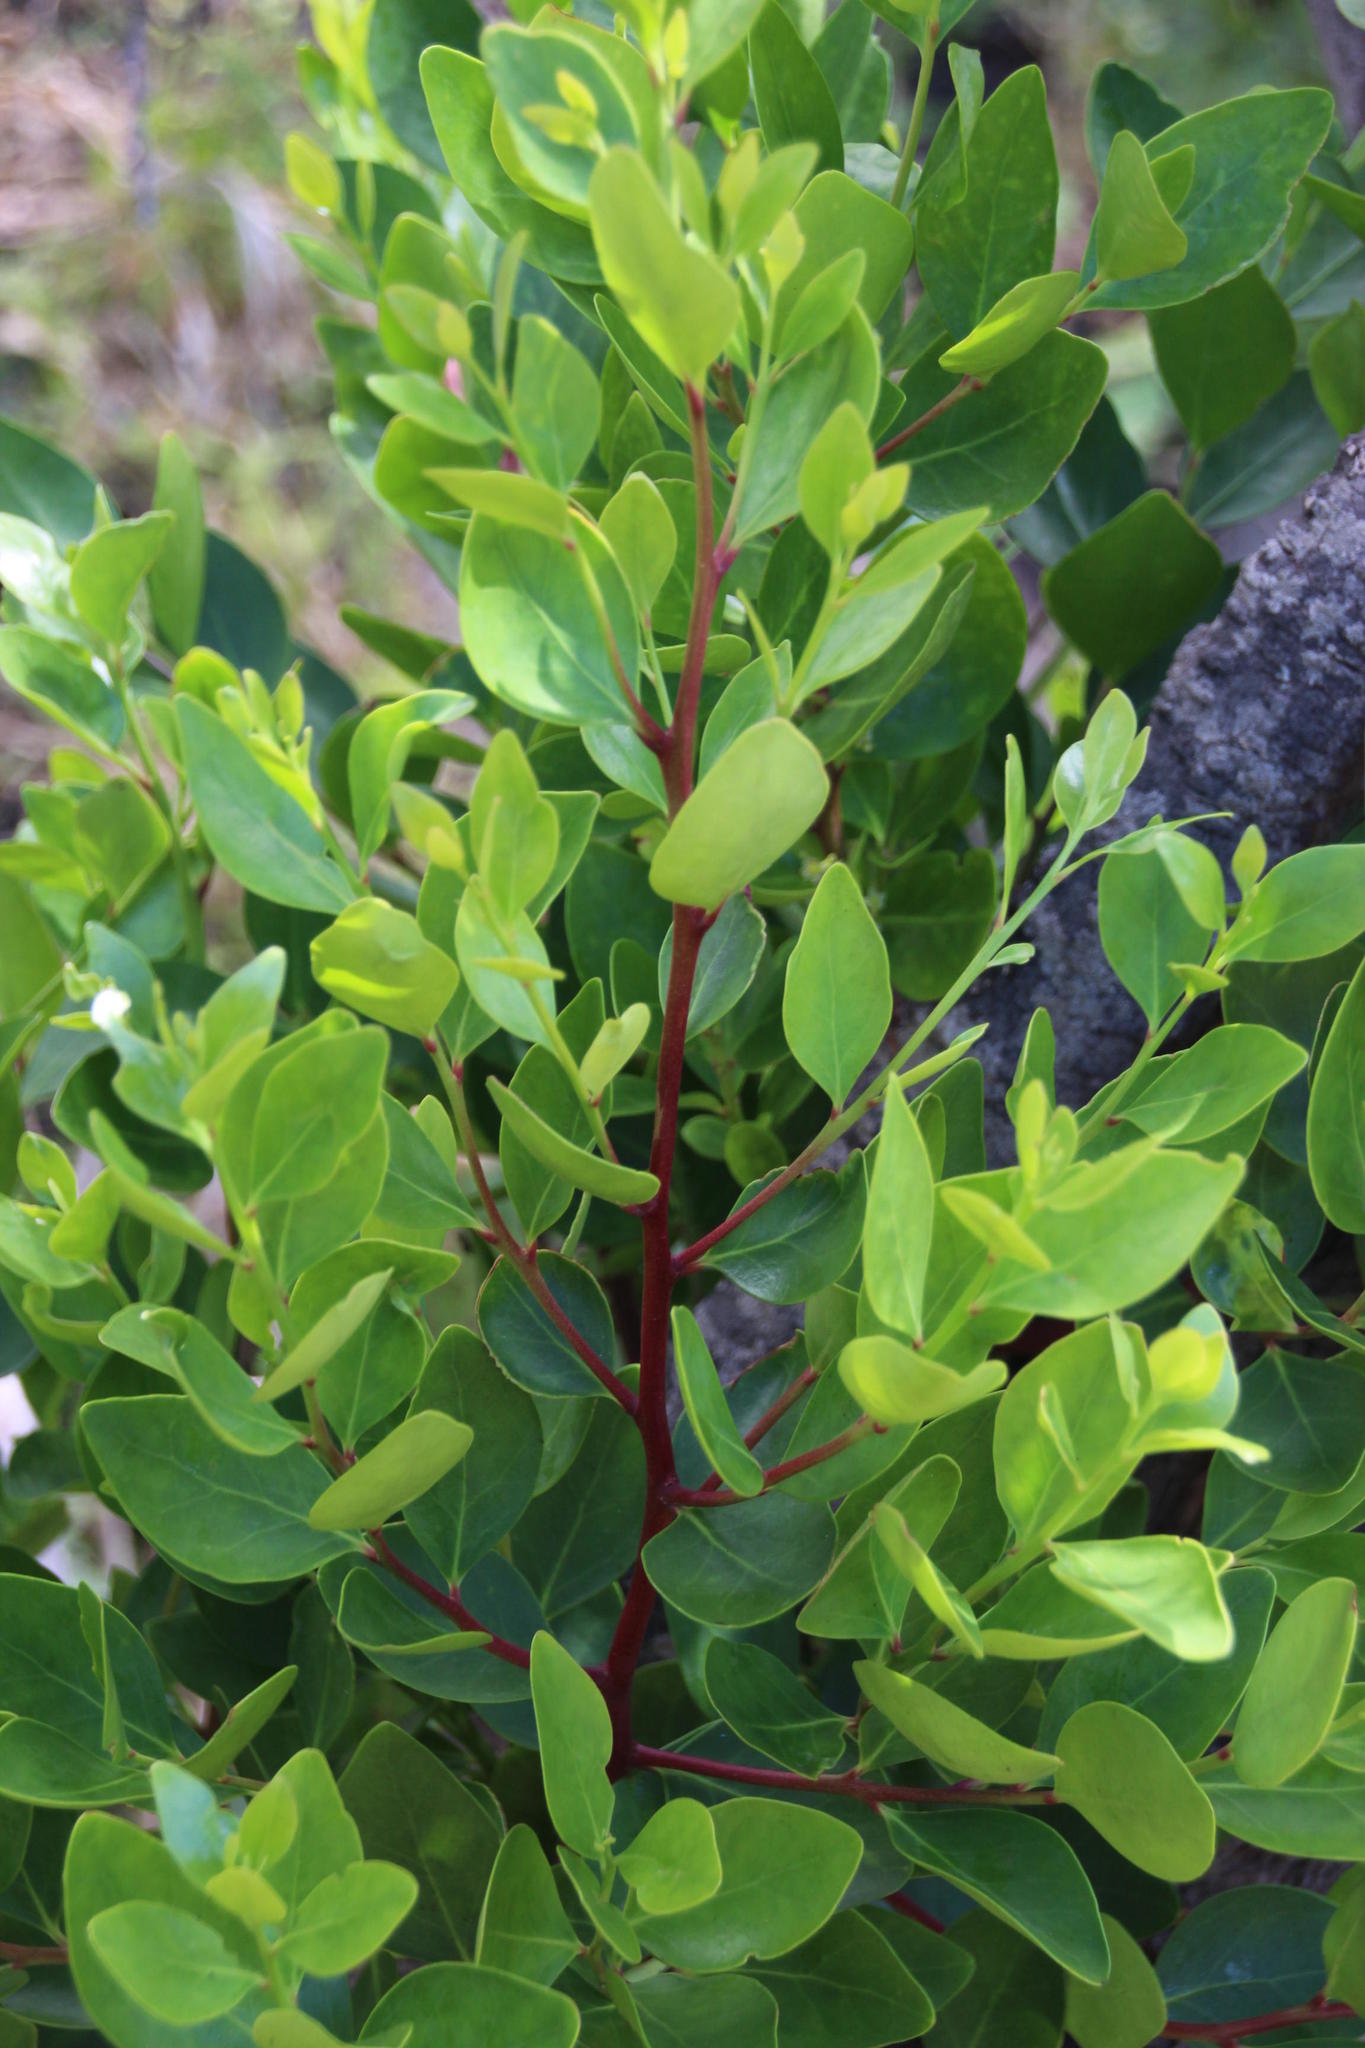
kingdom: Plantae
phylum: Tracheophyta
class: Magnoliopsida
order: Celastrales
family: Celastraceae
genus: Gymnosporia
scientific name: Gymnosporia laurina
